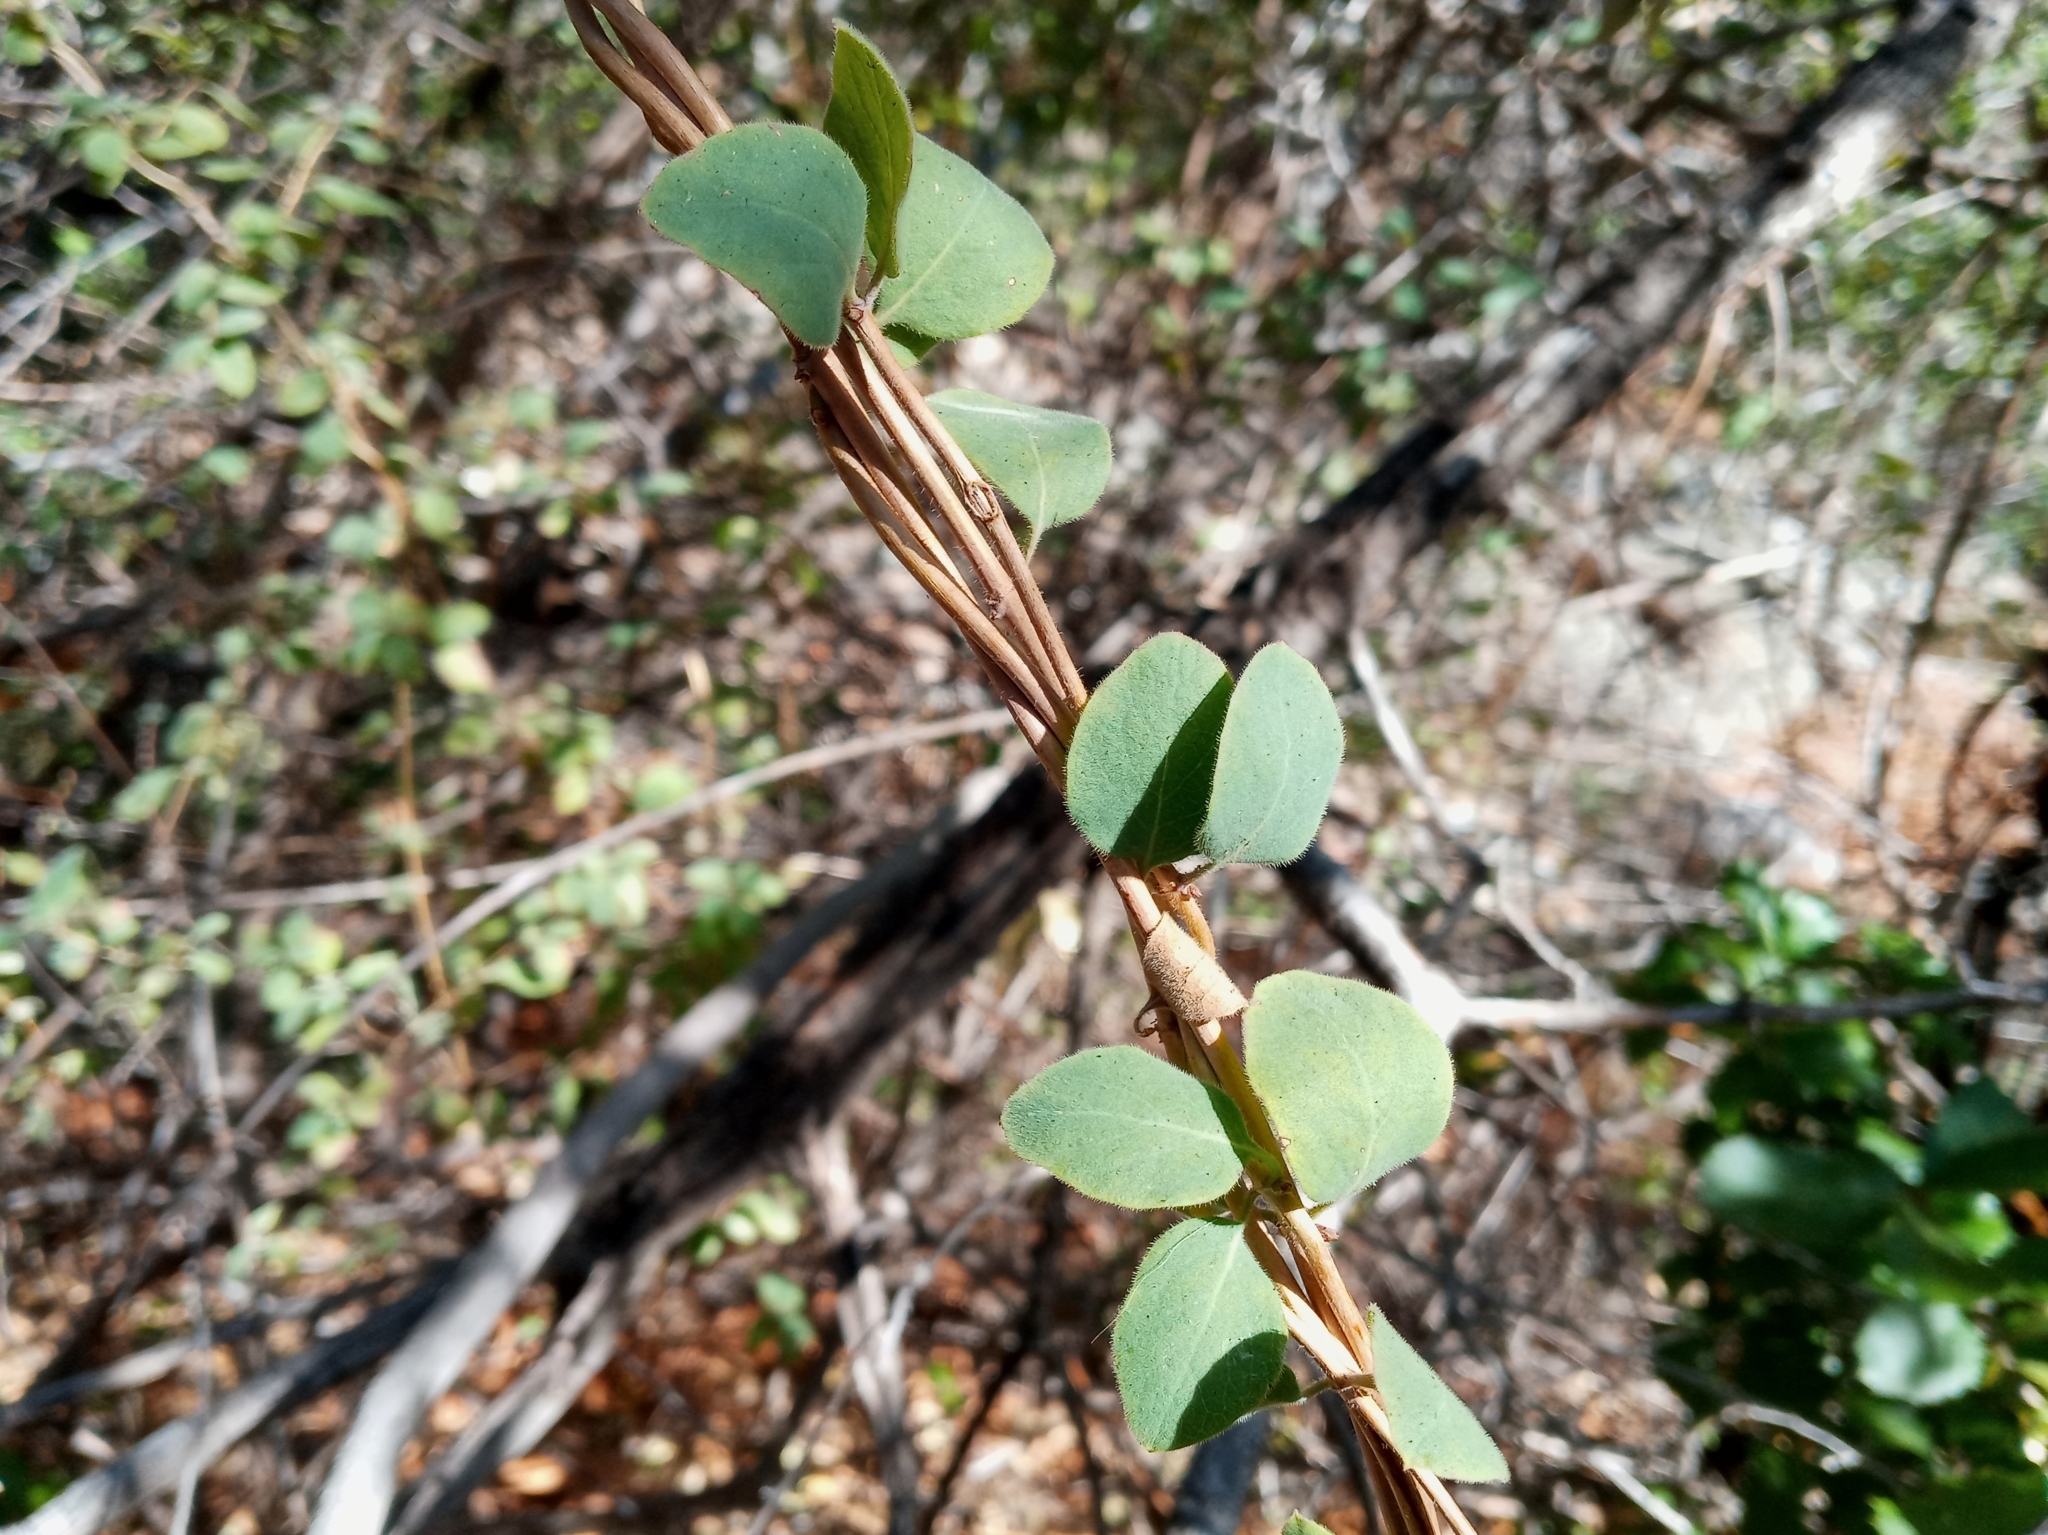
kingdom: Plantae
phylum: Tracheophyta
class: Magnoliopsida
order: Dipsacales
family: Caprifoliaceae
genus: Lonicera
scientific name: Lonicera subspicata
